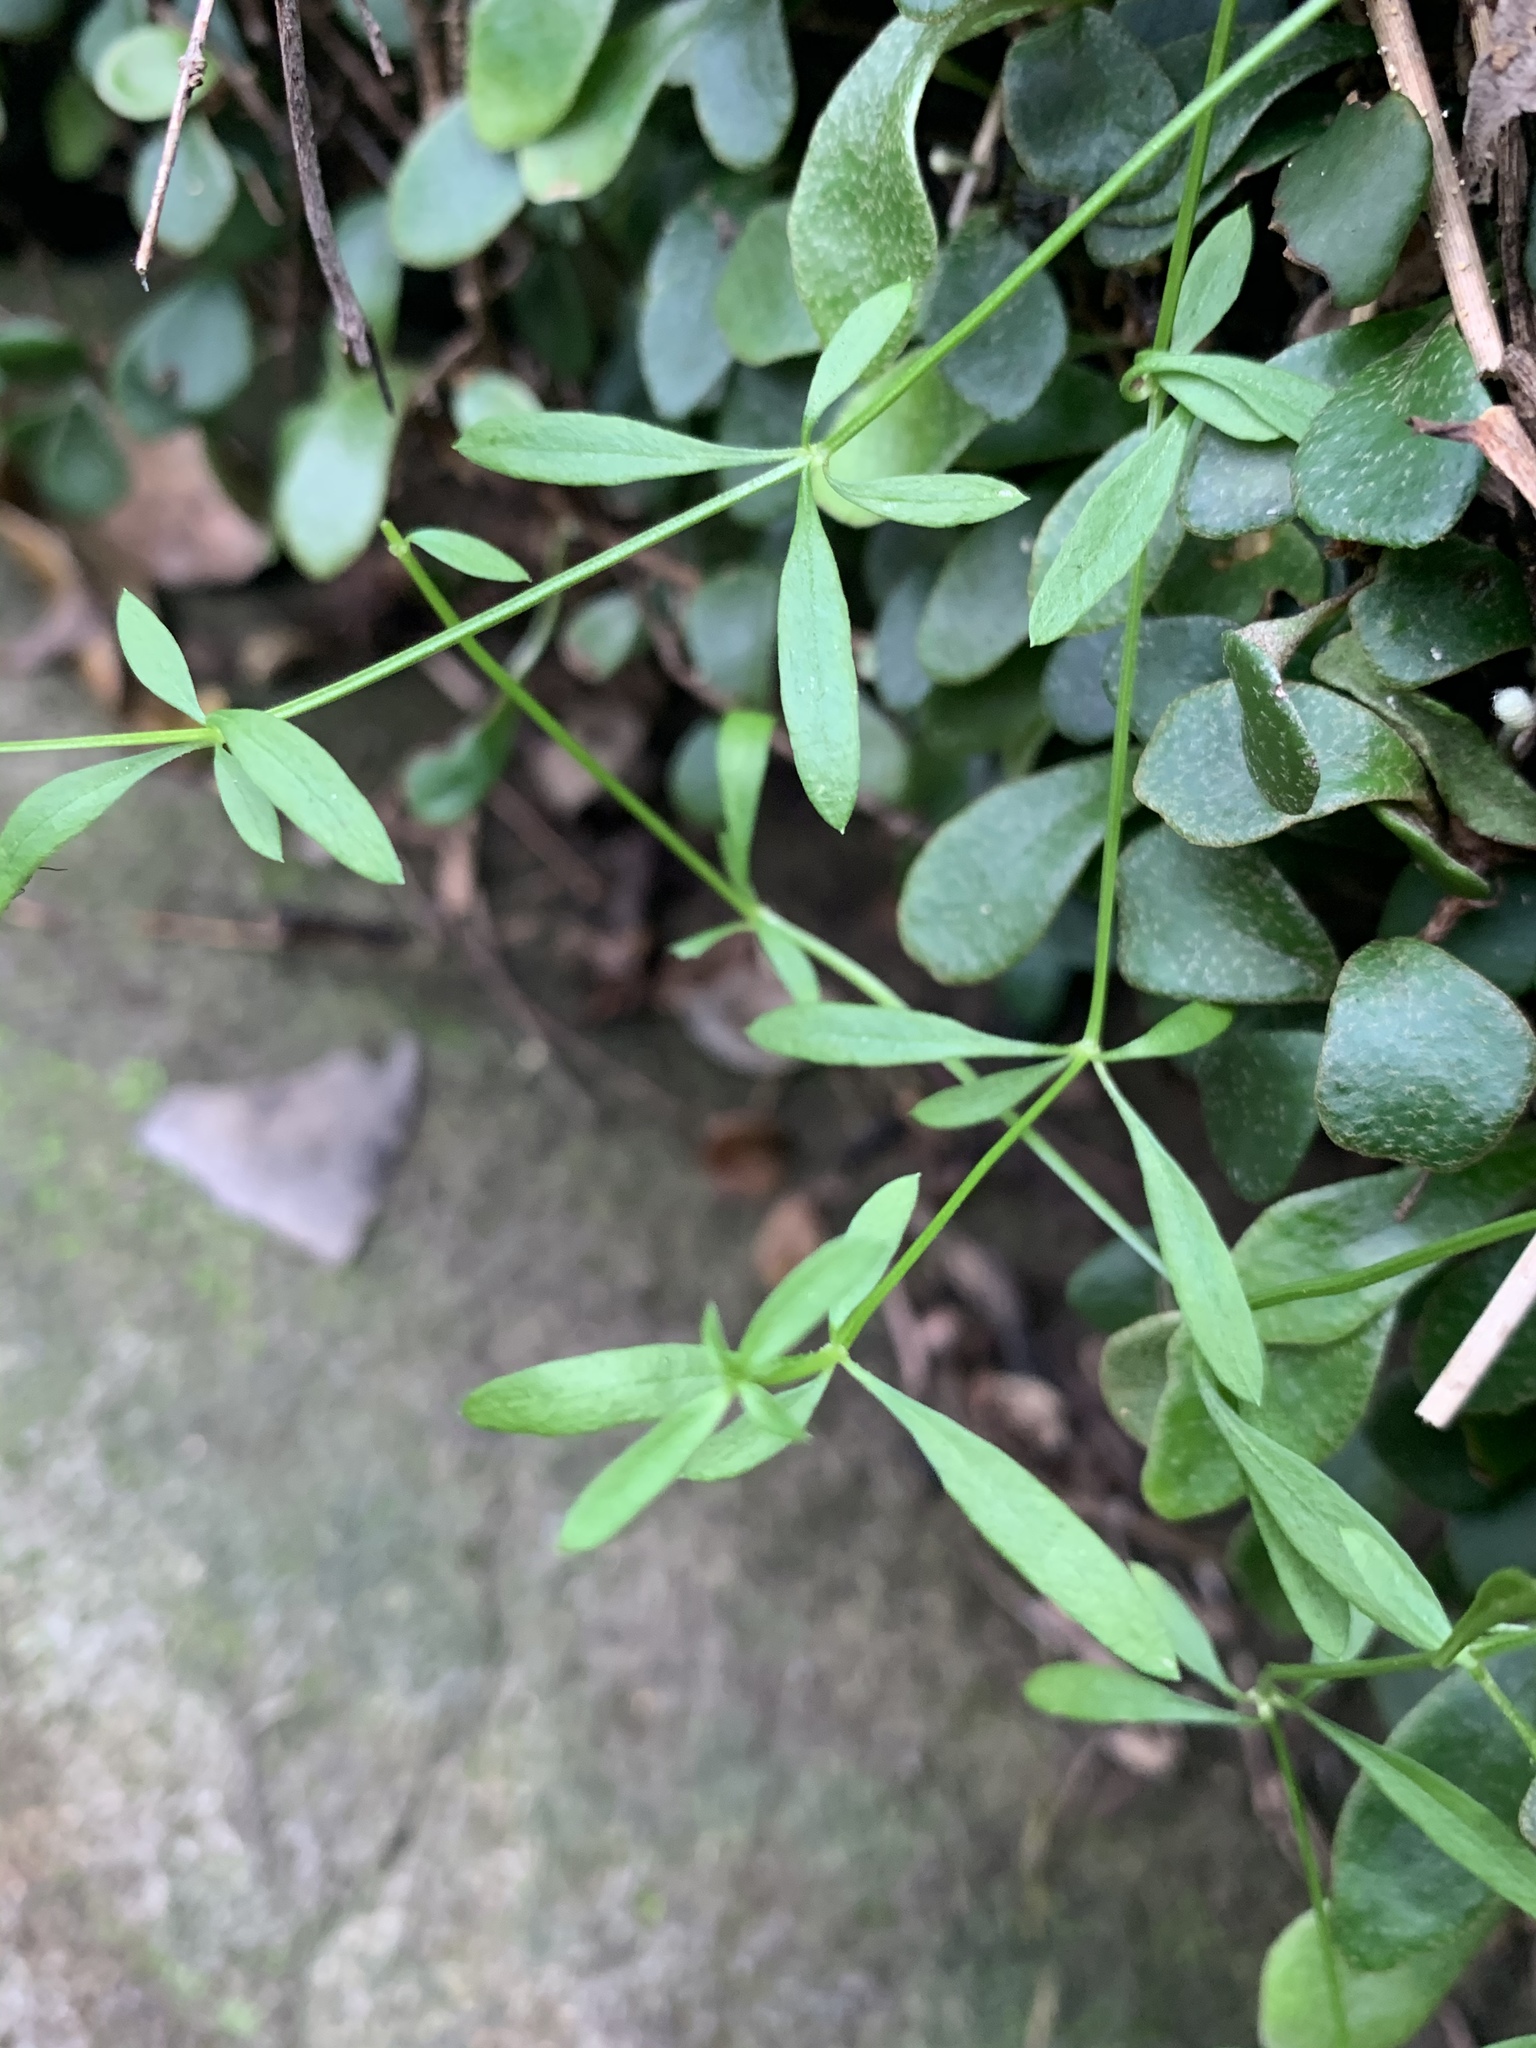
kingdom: Plantae
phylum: Tracheophyta
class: Magnoliopsida
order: Gentianales
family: Rubiaceae
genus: Galium
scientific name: Galium binifolium
